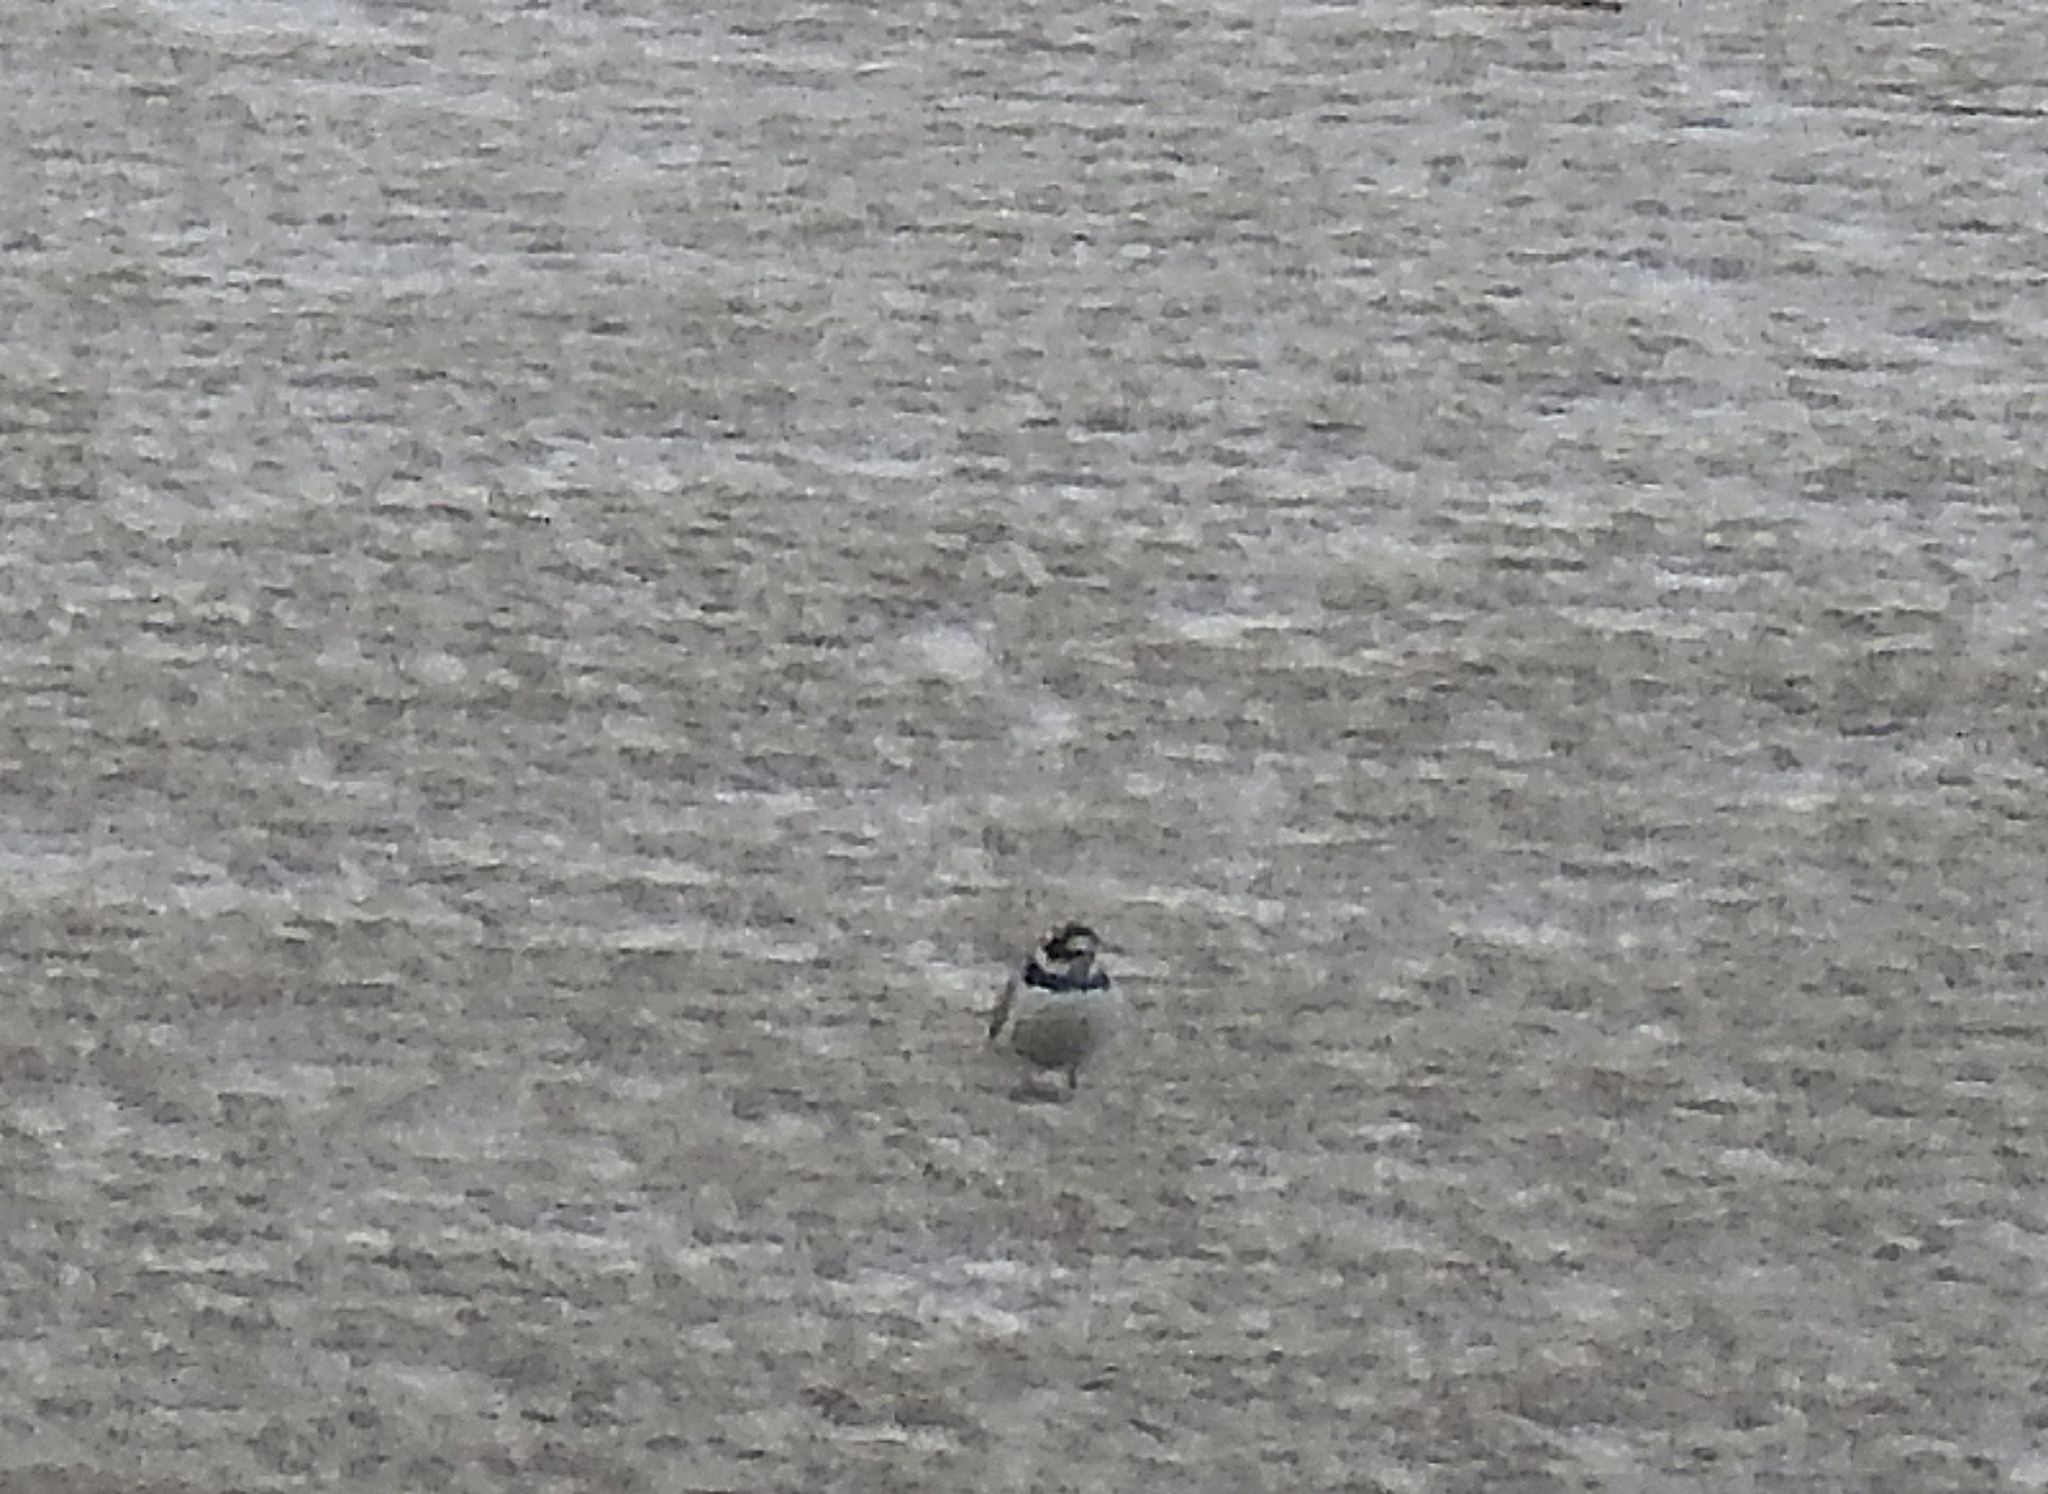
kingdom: Animalia
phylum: Chordata
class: Aves
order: Charadriiformes
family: Charadriidae
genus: Charadrius
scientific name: Charadrius hiaticula
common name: Common ringed plover
